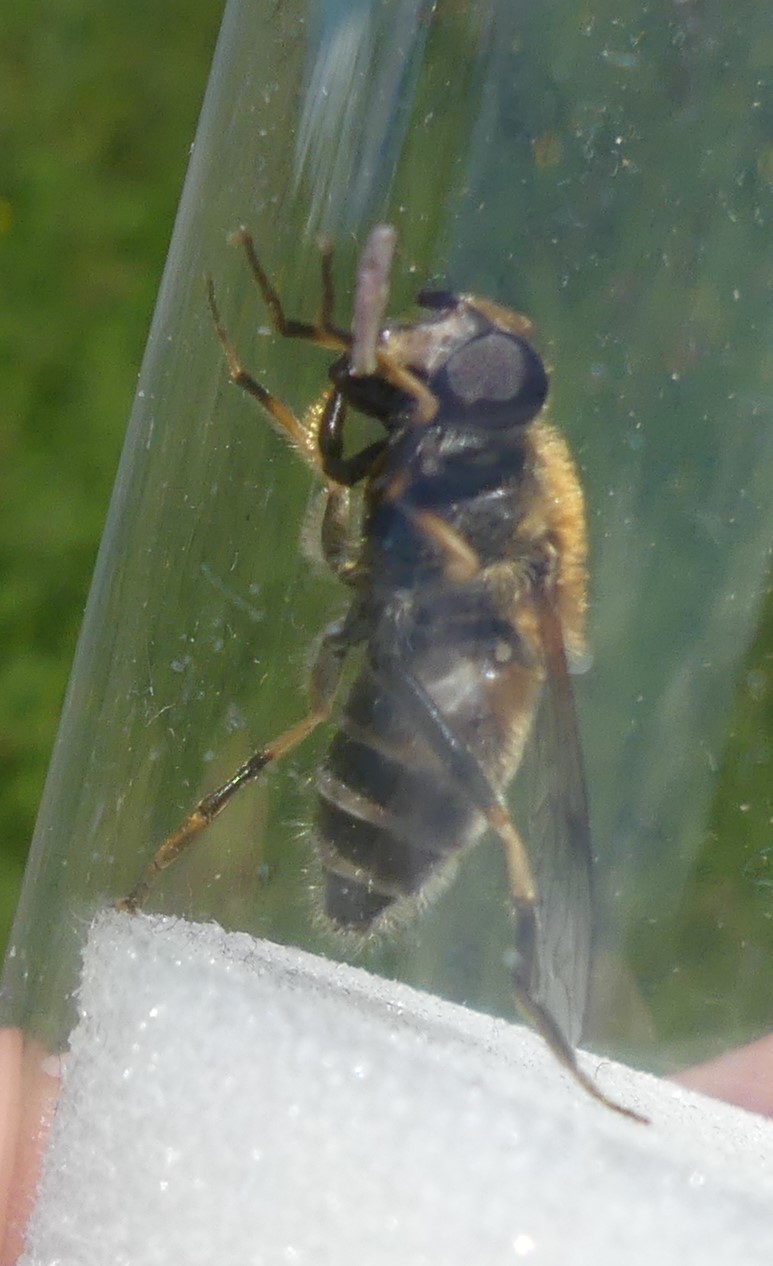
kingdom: Animalia
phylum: Arthropoda
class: Insecta
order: Diptera
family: Syrphidae
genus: Eristalis
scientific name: Eristalis jugorum
